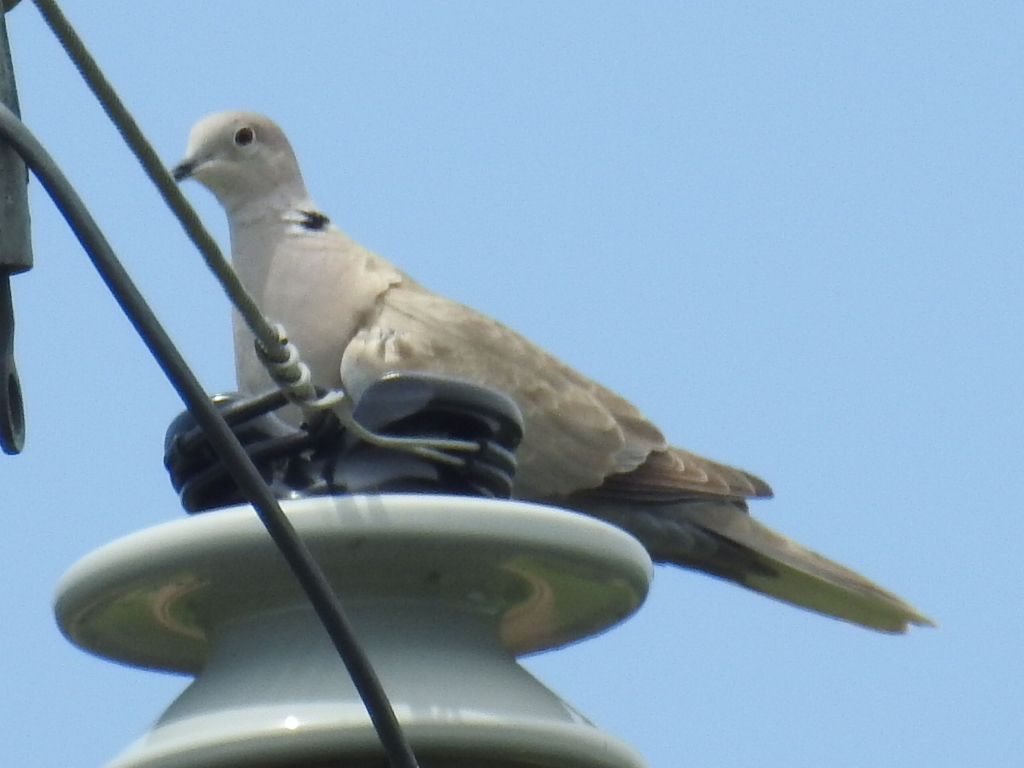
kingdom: Animalia
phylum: Chordata
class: Aves
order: Columbiformes
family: Columbidae
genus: Streptopelia
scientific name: Streptopelia decaocto
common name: Eurasian collared dove
